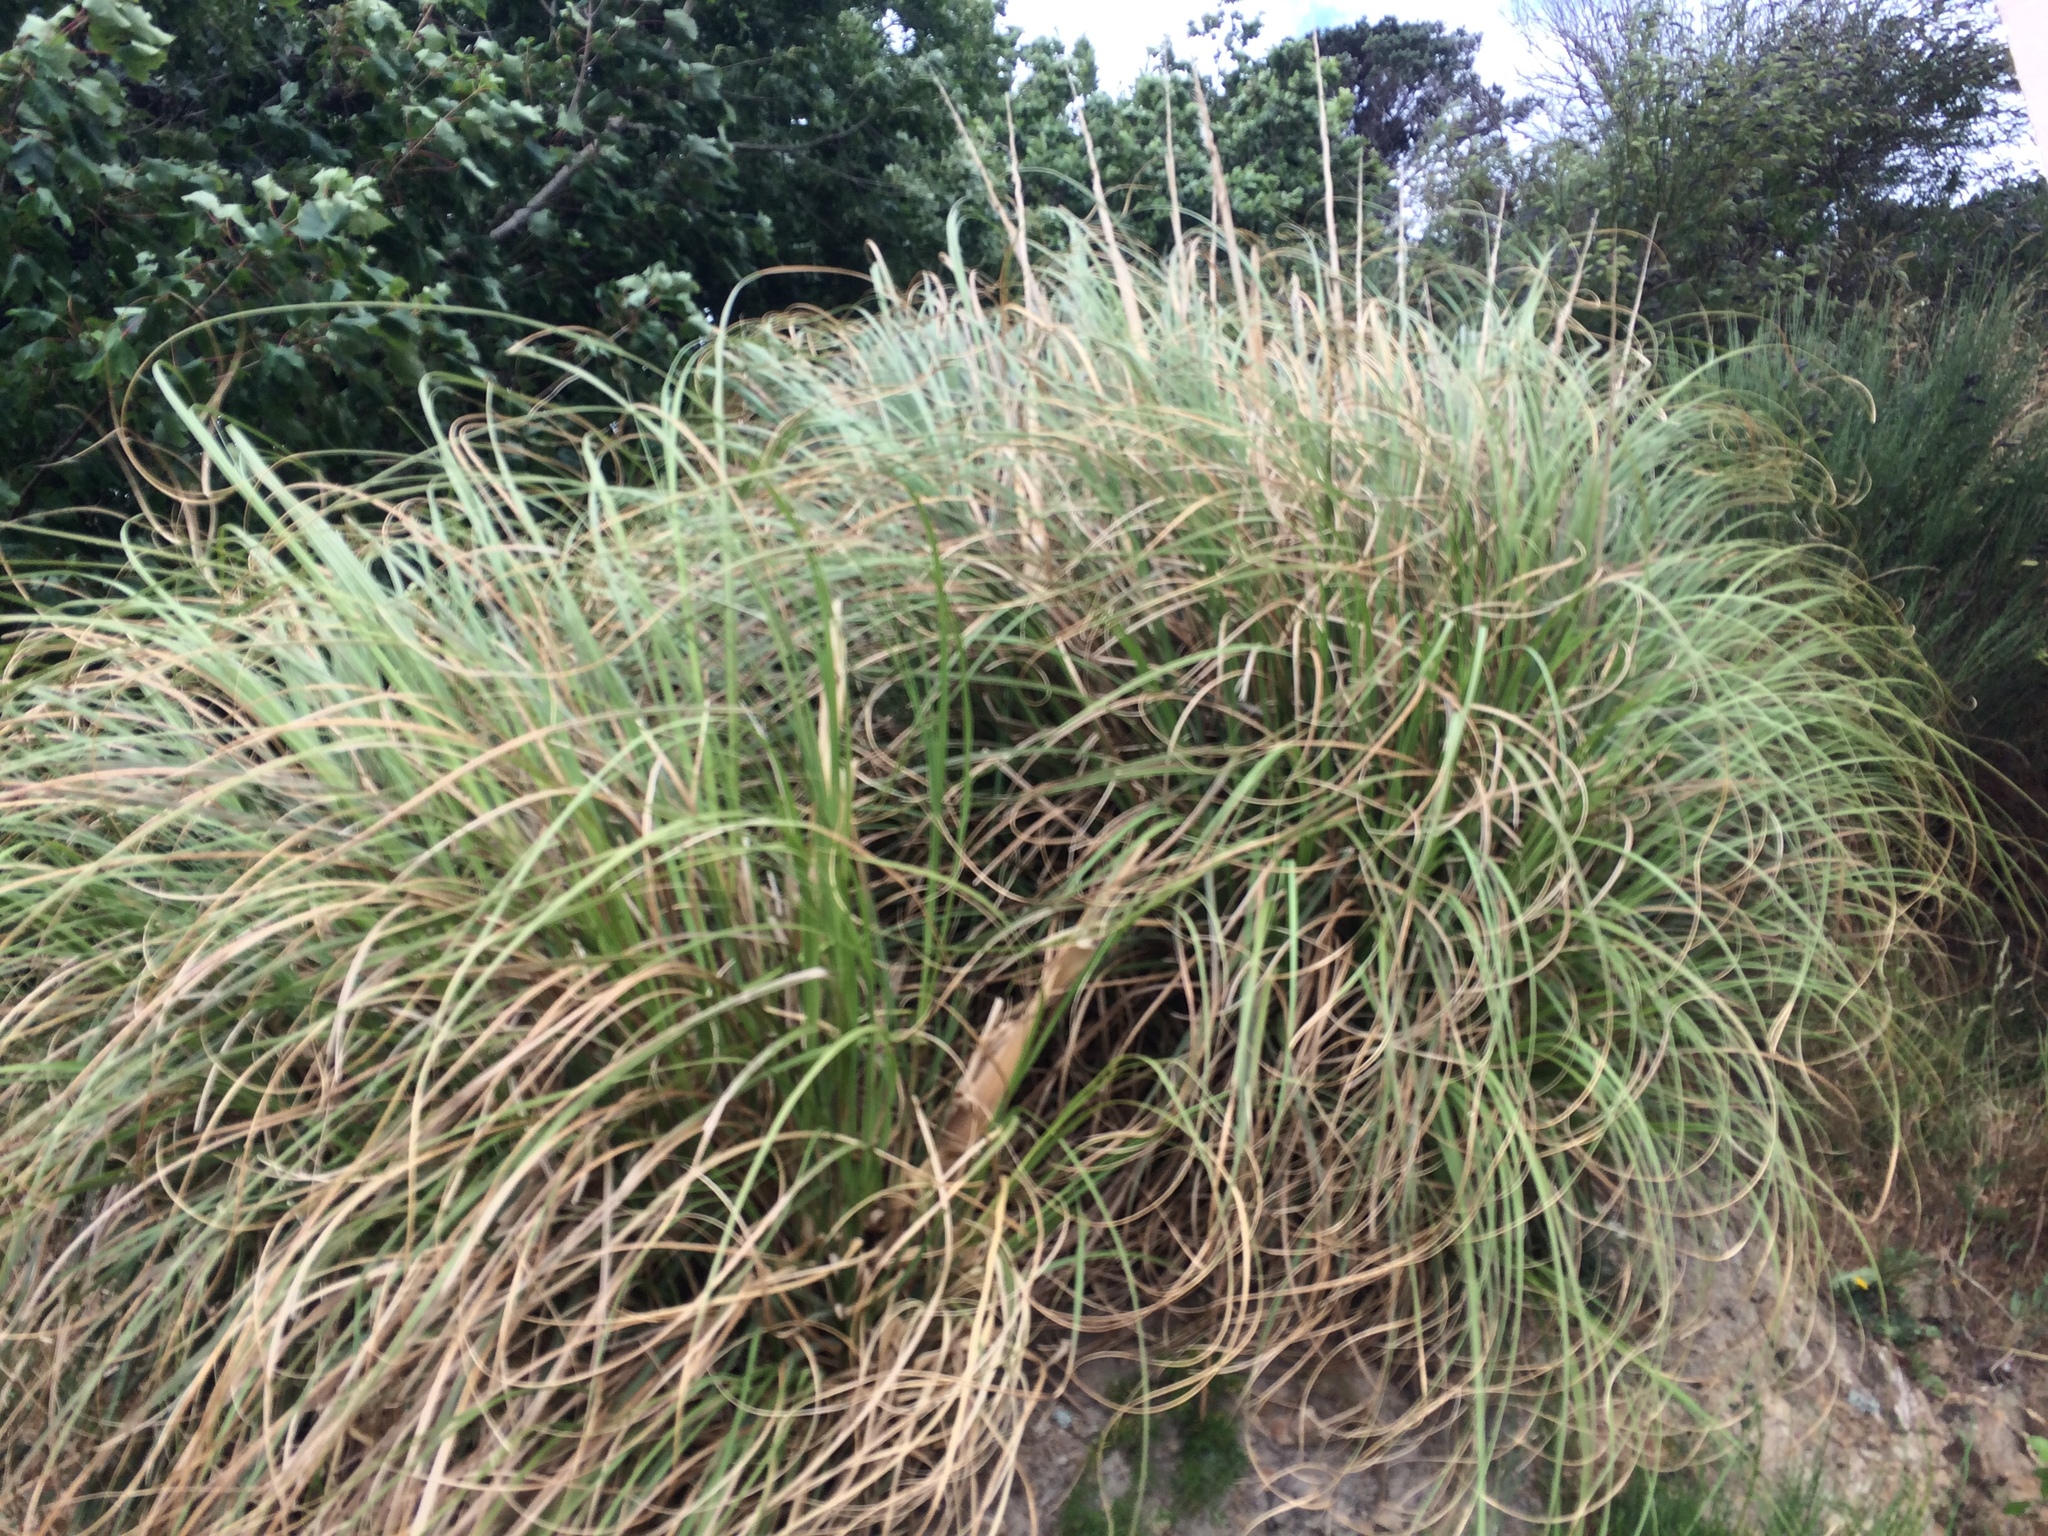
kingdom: Plantae
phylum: Tracheophyta
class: Liliopsida
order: Poales
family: Poaceae
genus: Cortaderia
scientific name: Cortaderia selloana
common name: Uruguayan pampas grass
